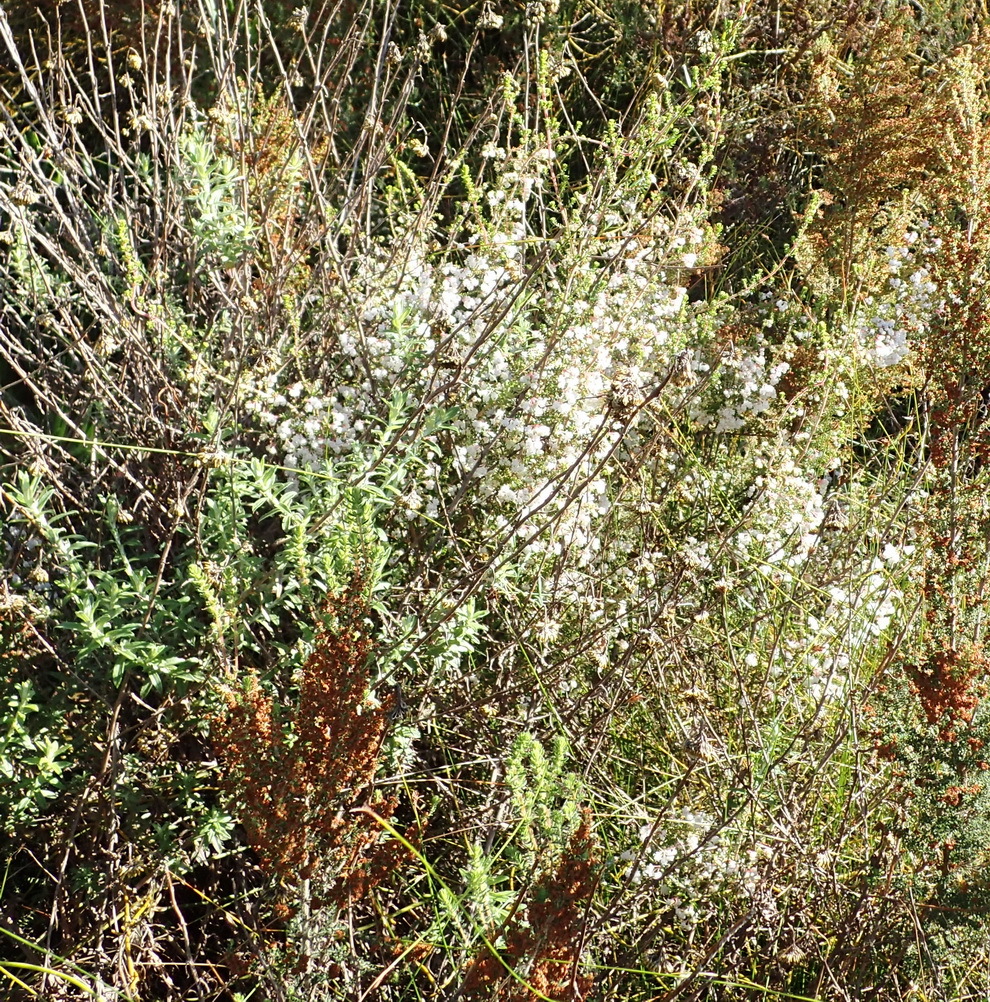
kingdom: Plantae
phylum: Tracheophyta
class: Magnoliopsida
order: Ericales
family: Ericaceae
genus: Erica
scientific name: Erica formosa
